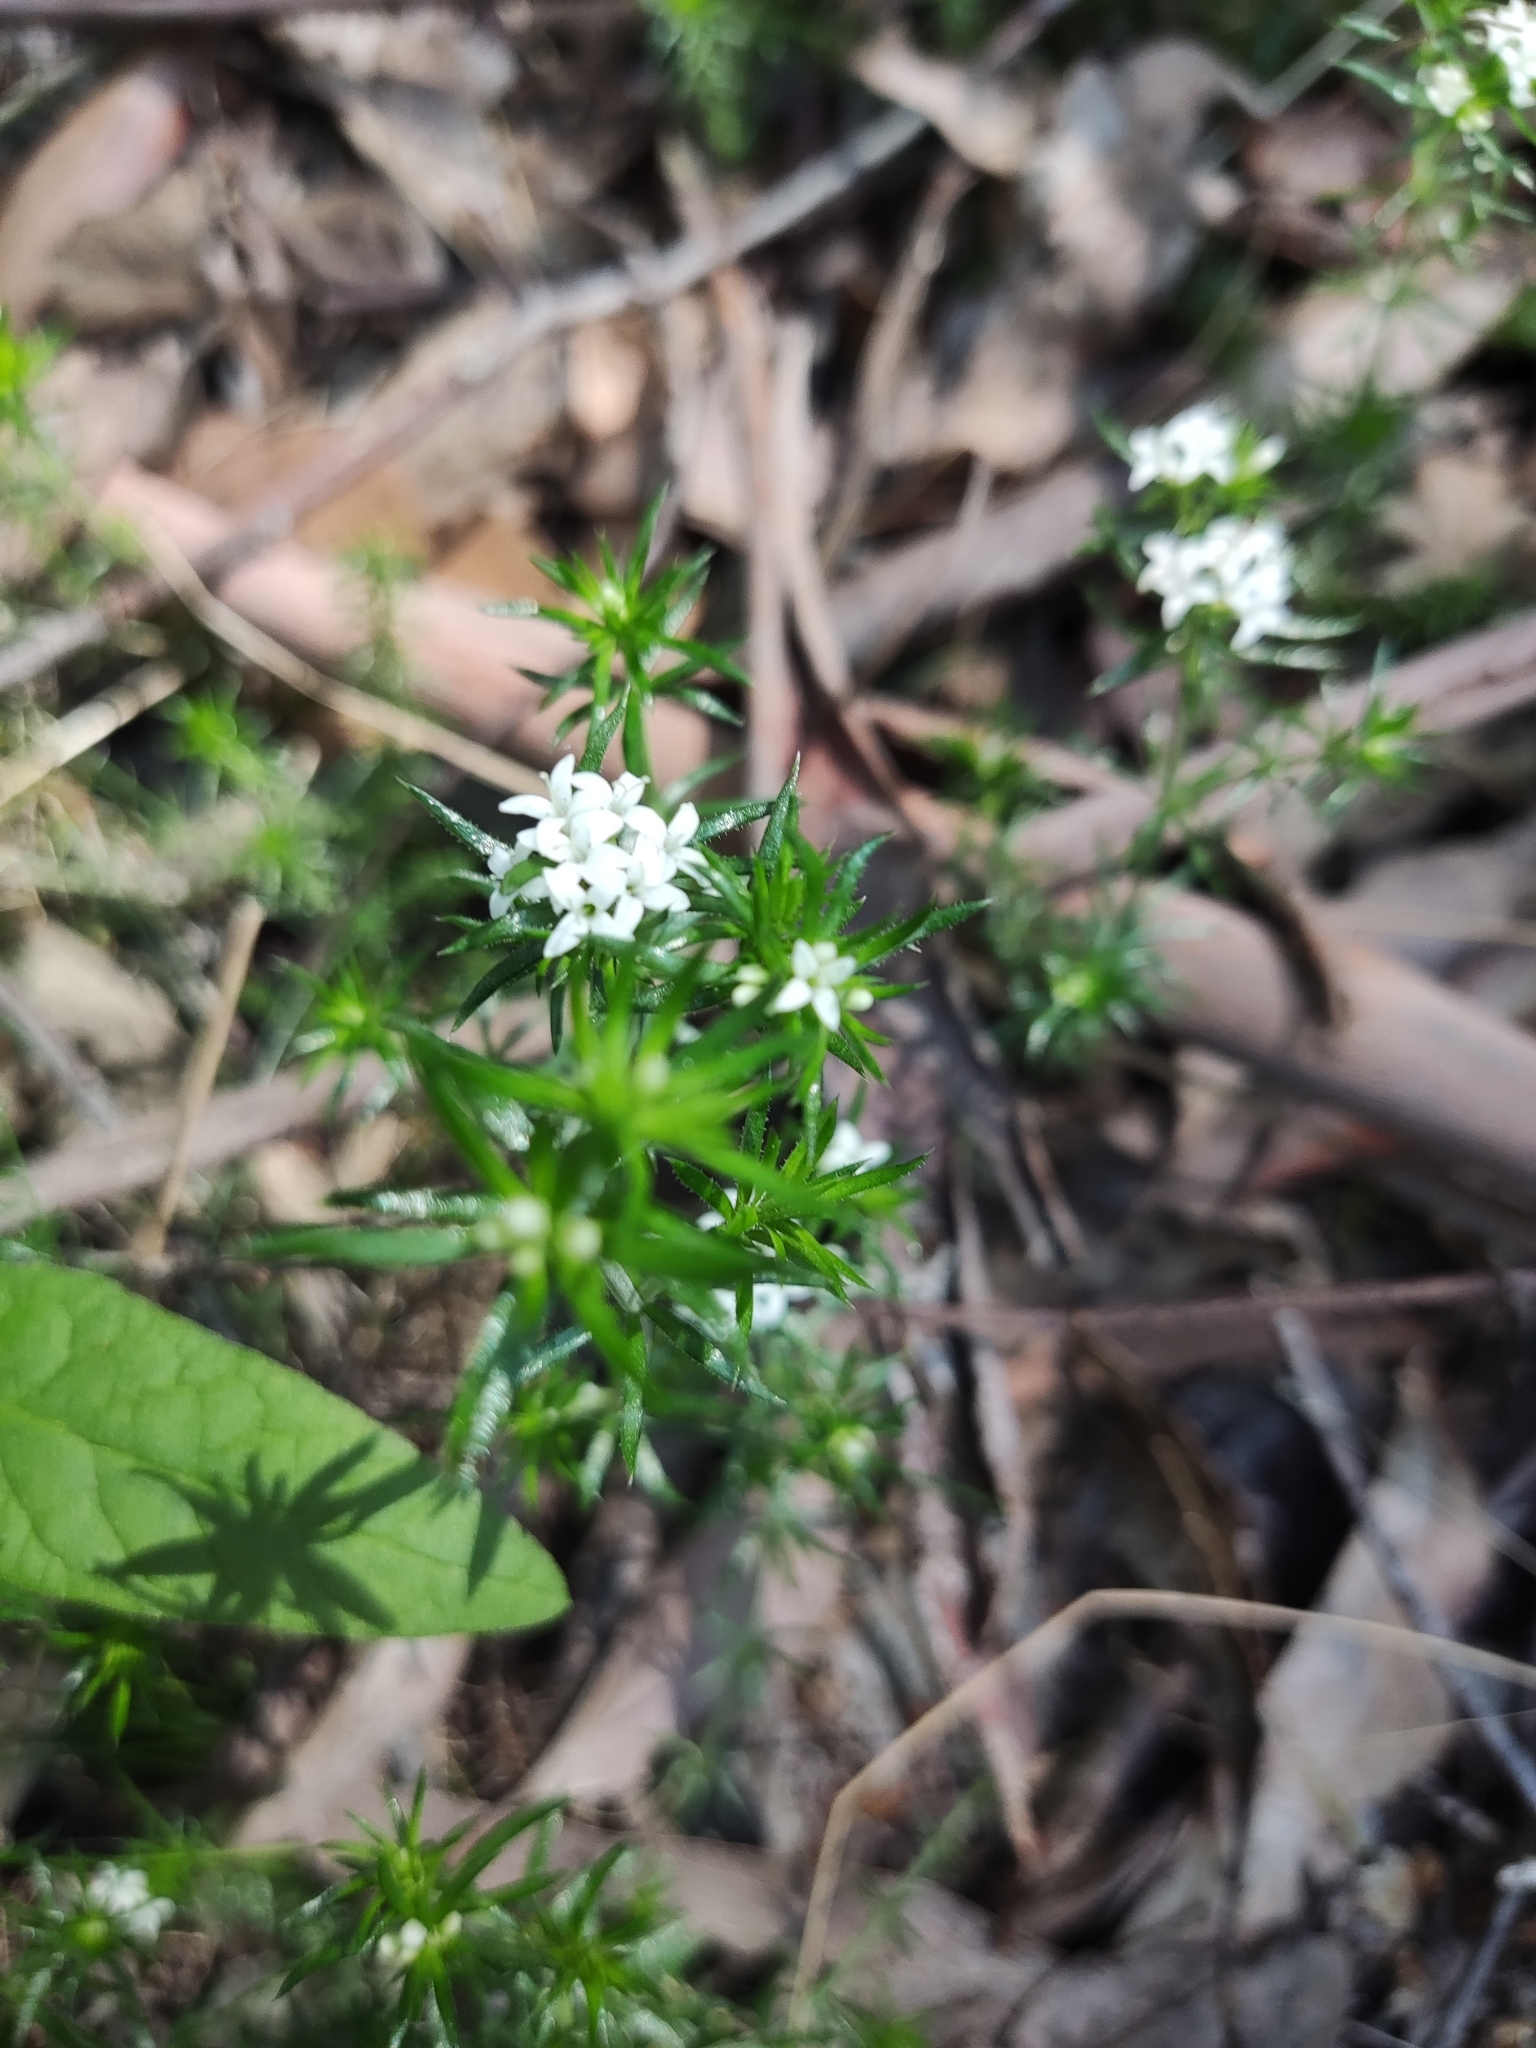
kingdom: Plantae
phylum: Tracheophyta
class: Magnoliopsida
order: Gentianales
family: Rubiaceae
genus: Asperula
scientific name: Asperula scoparia
